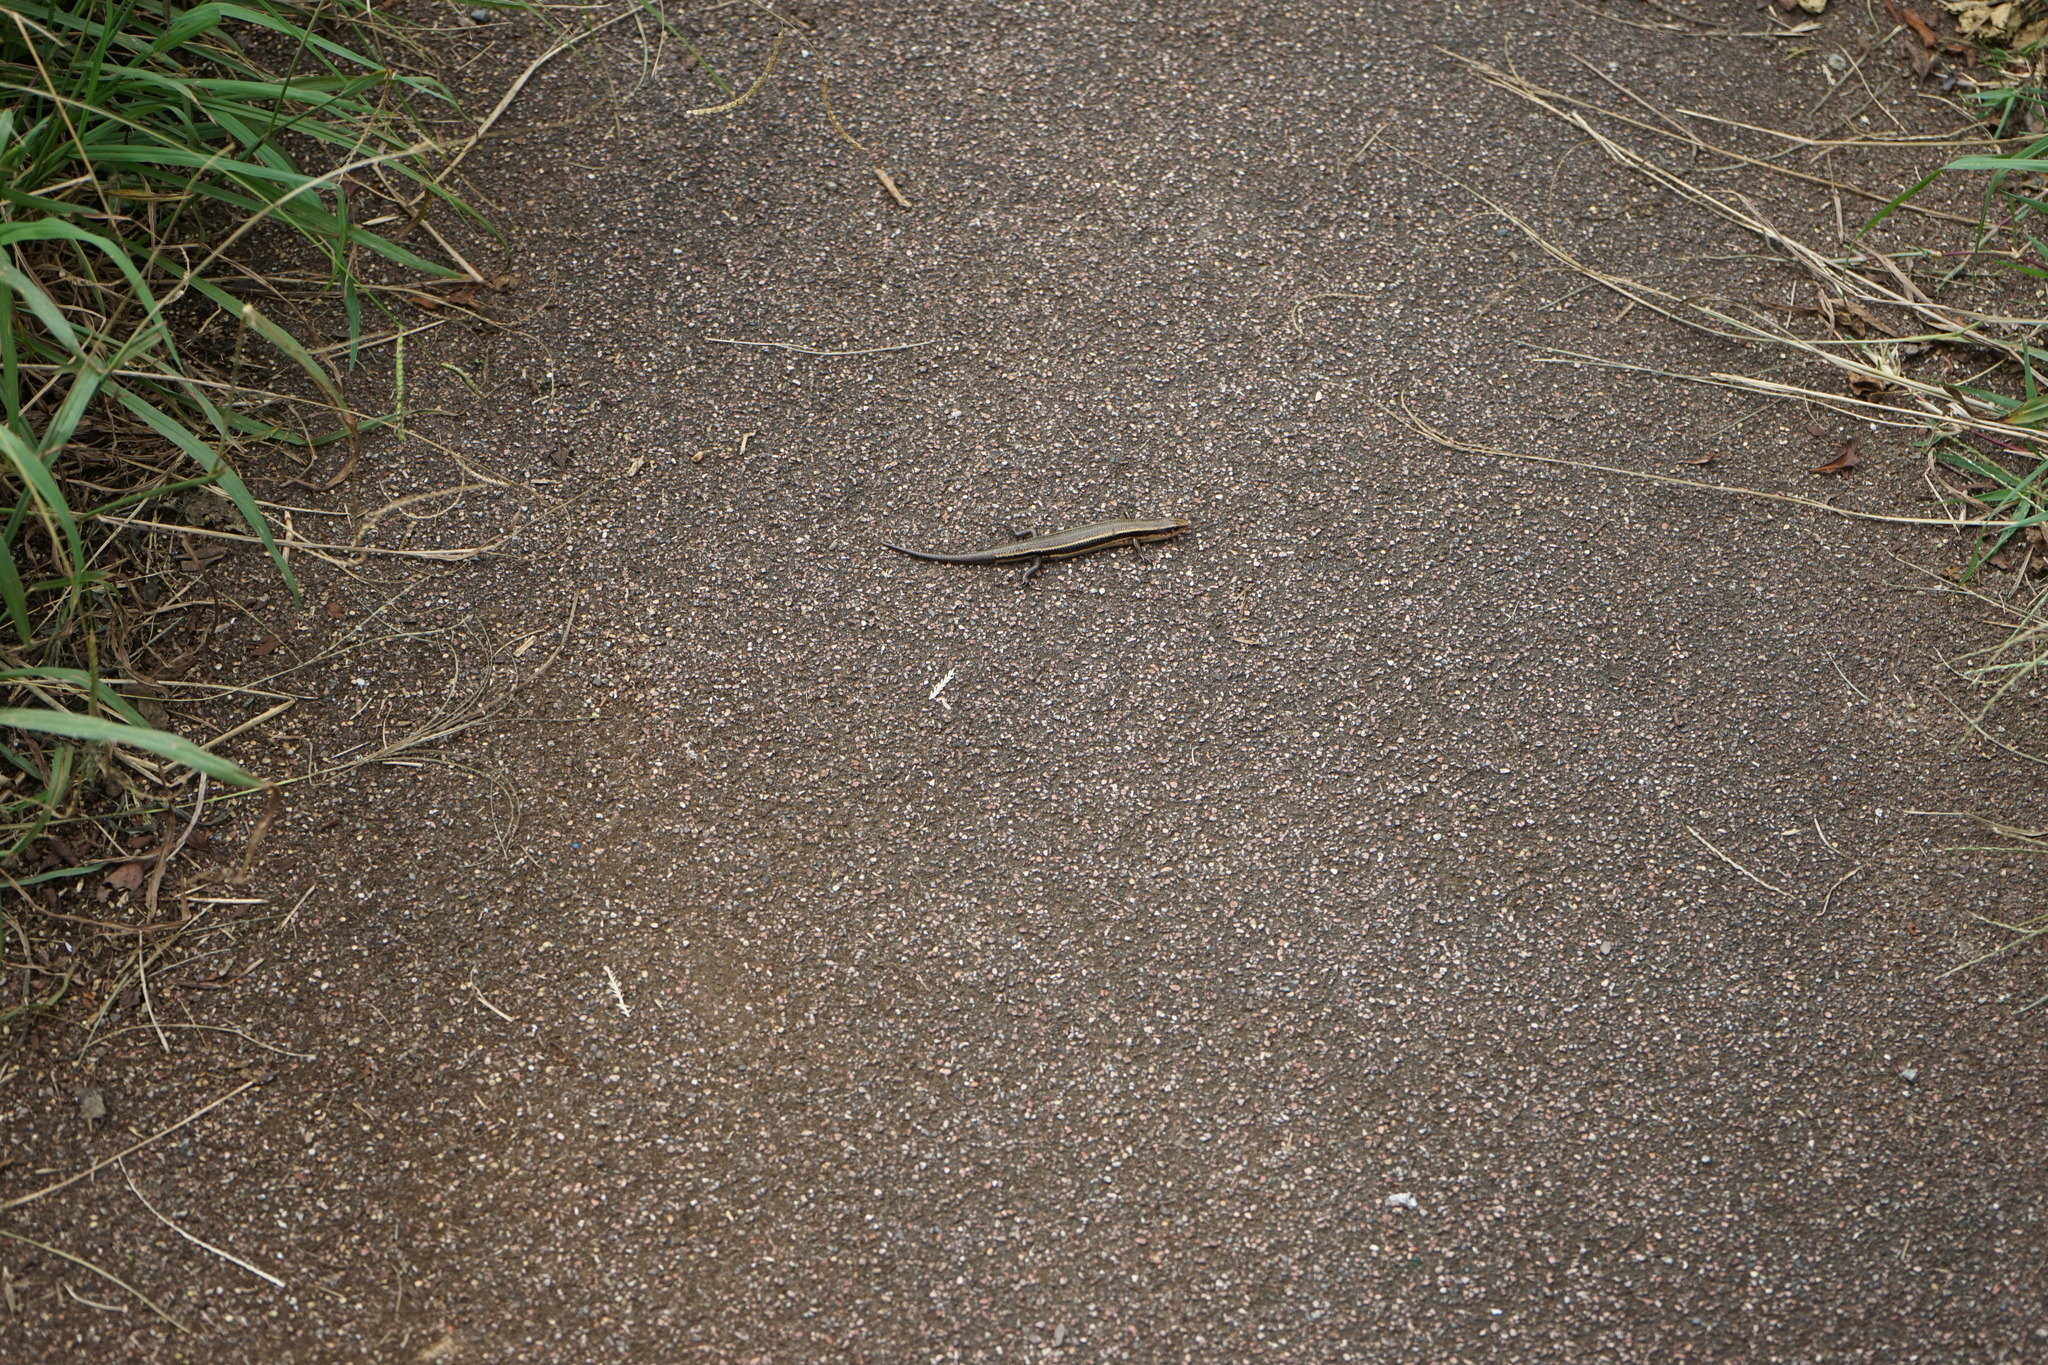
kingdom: Animalia
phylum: Chordata
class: Squamata
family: Scincidae
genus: Plestiodon
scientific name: Plestiodon finitimus
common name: Far eastern skink
